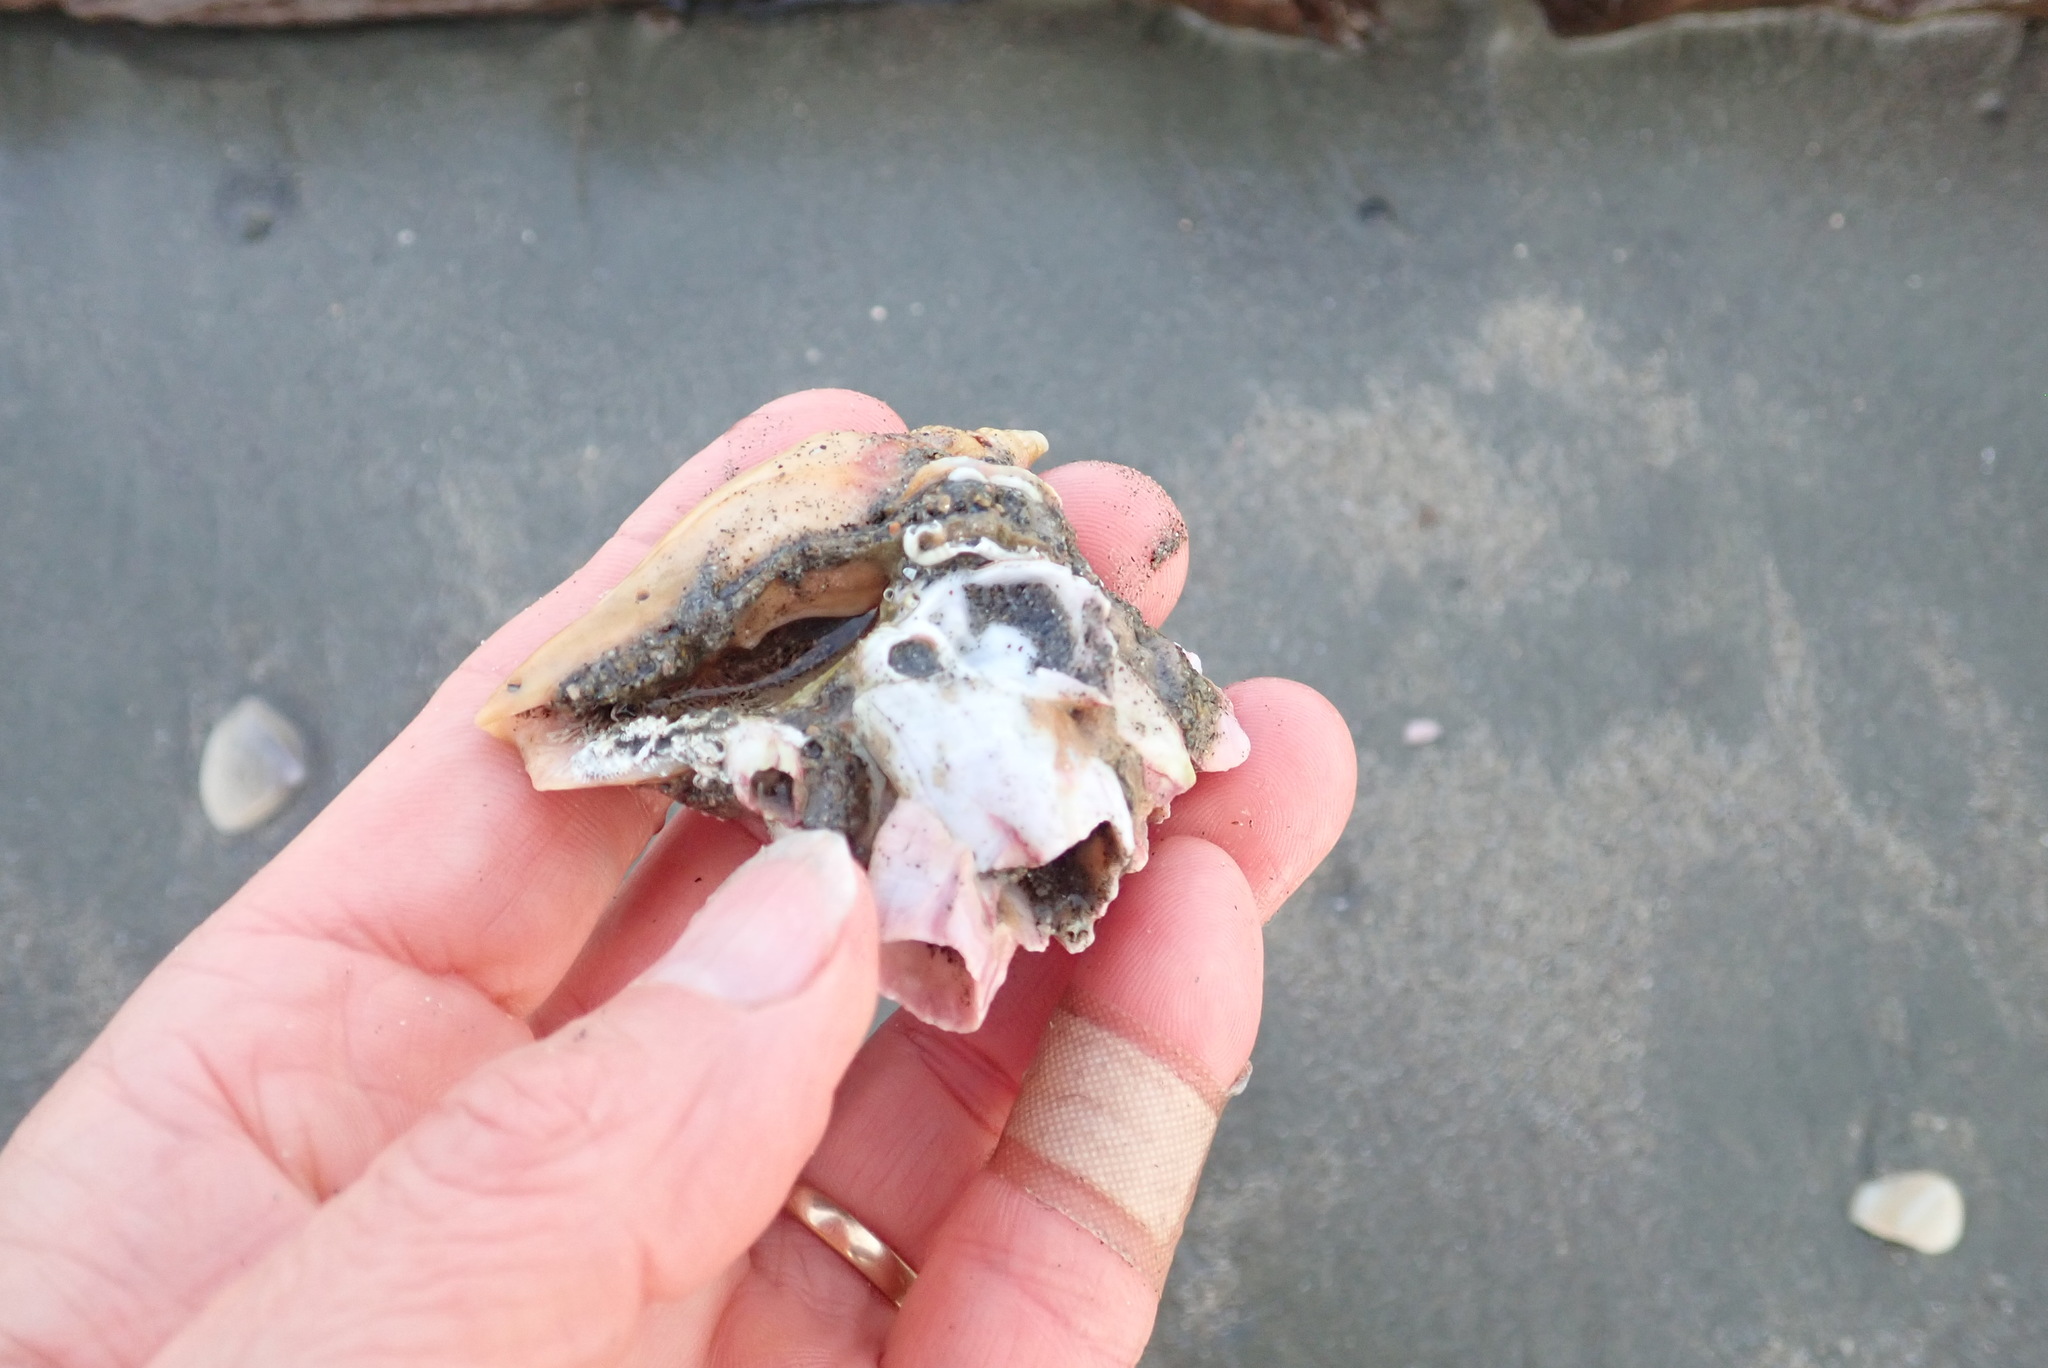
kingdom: Animalia
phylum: Mollusca
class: Gastropoda
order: Neogastropoda
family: Volutidae
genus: Alcithoe
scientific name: Alcithoe fusus
